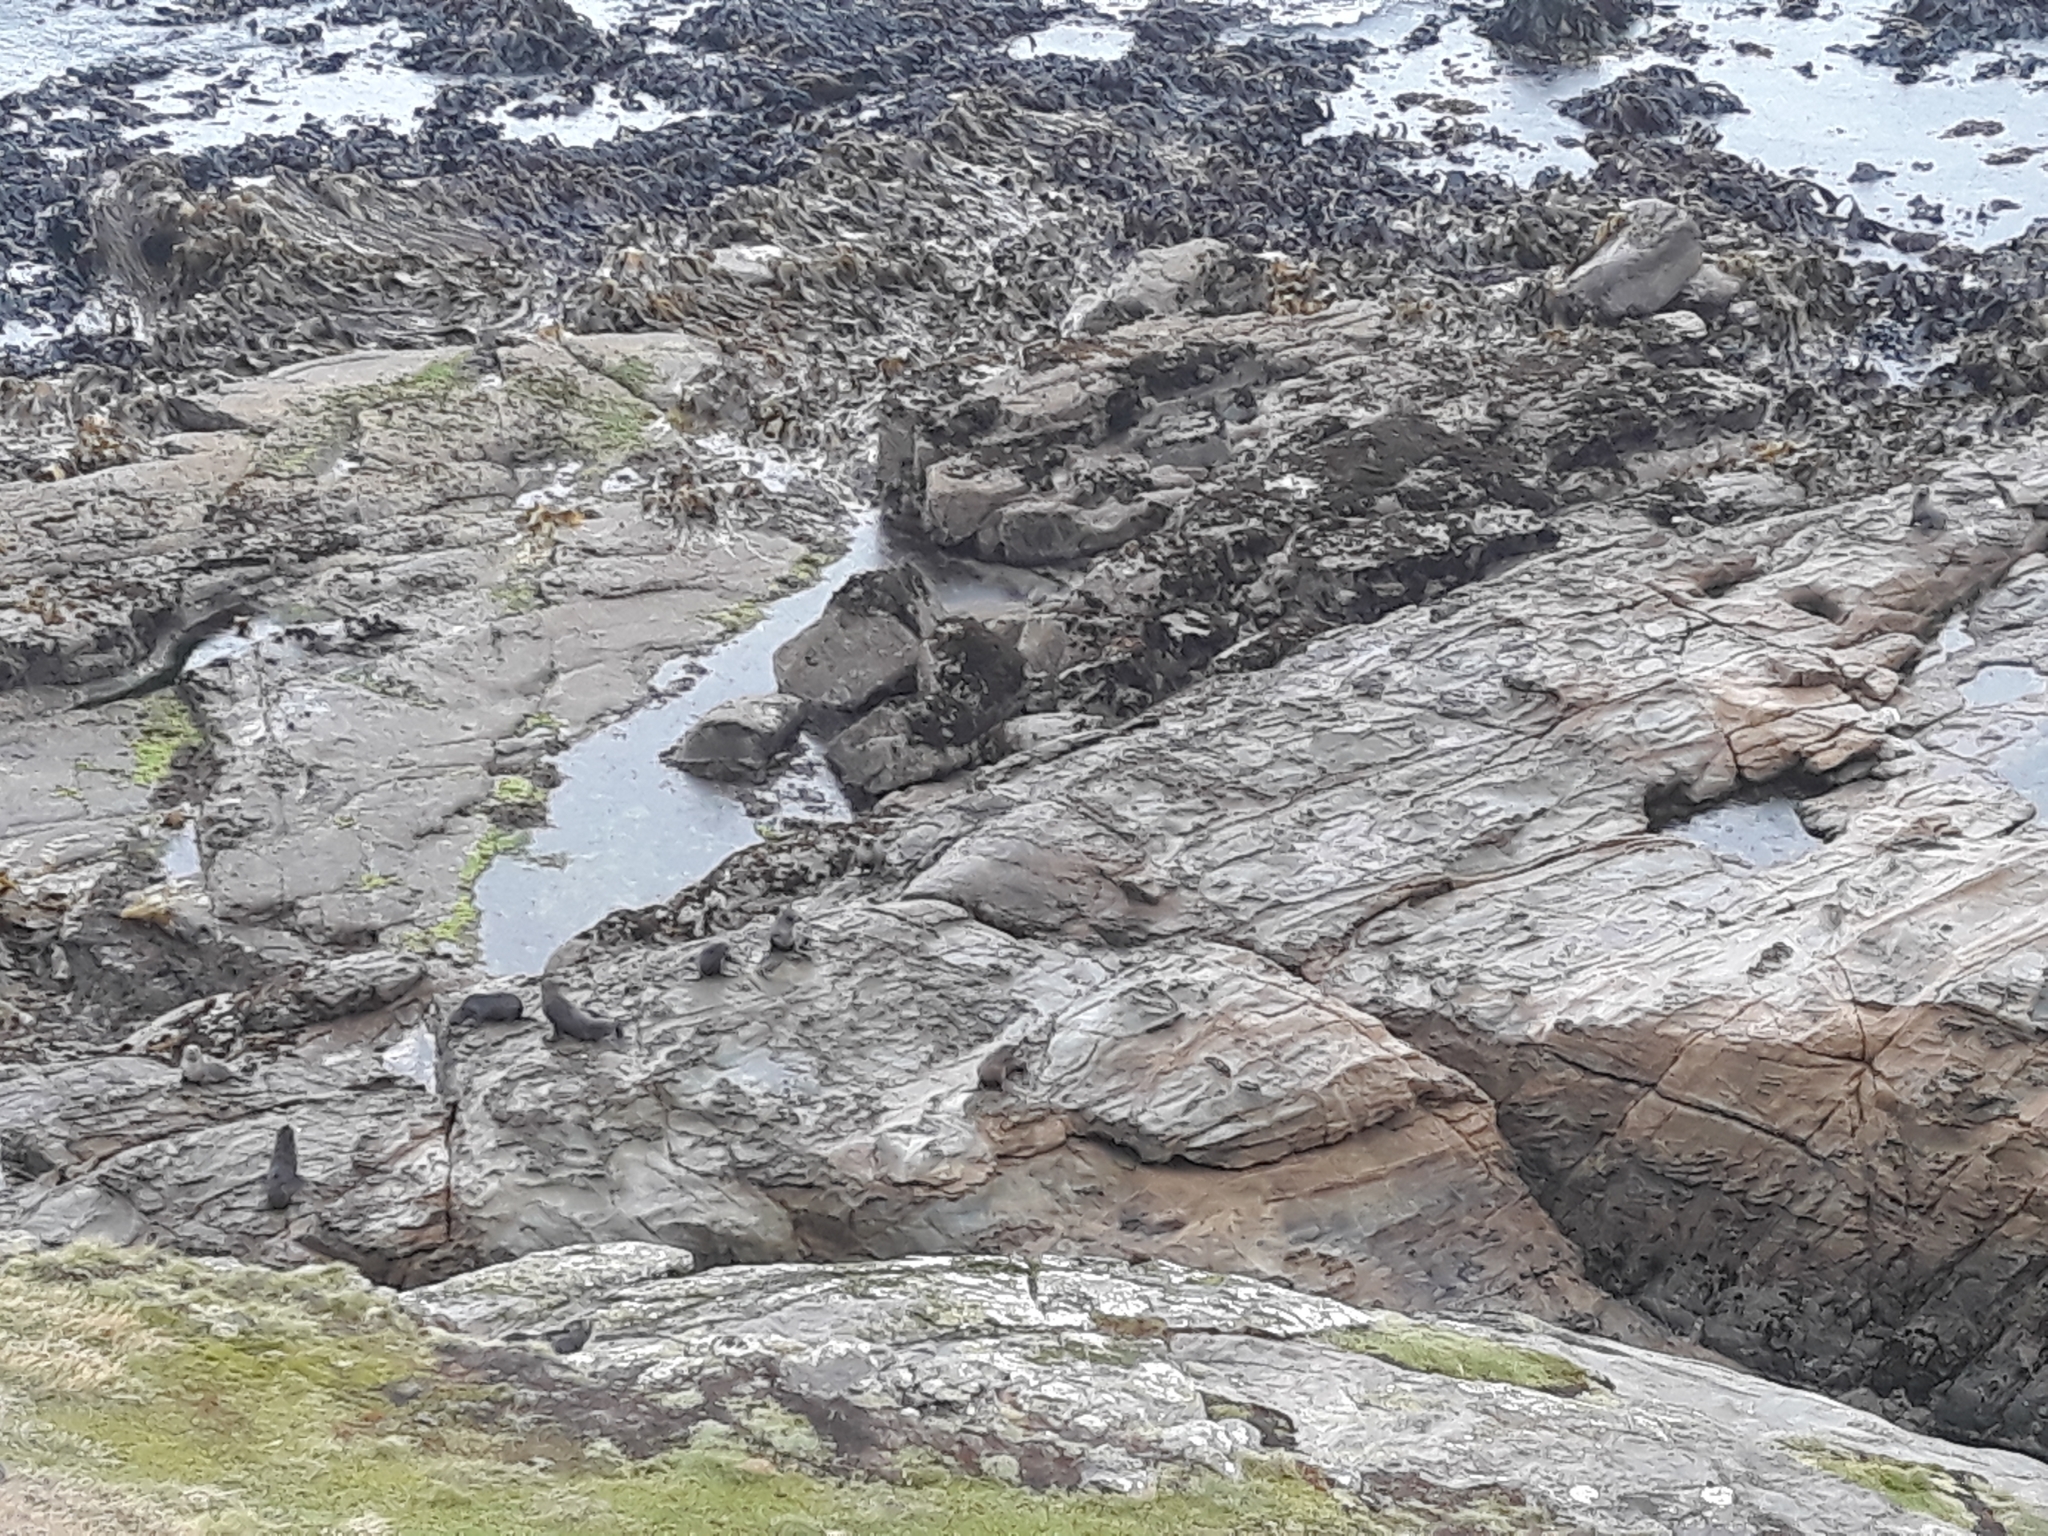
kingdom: Animalia
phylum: Chordata
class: Mammalia
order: Carnivora
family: Otariidae
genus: Arctocephalus
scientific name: Arctocephalus forsteri
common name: New zealand fur seal
